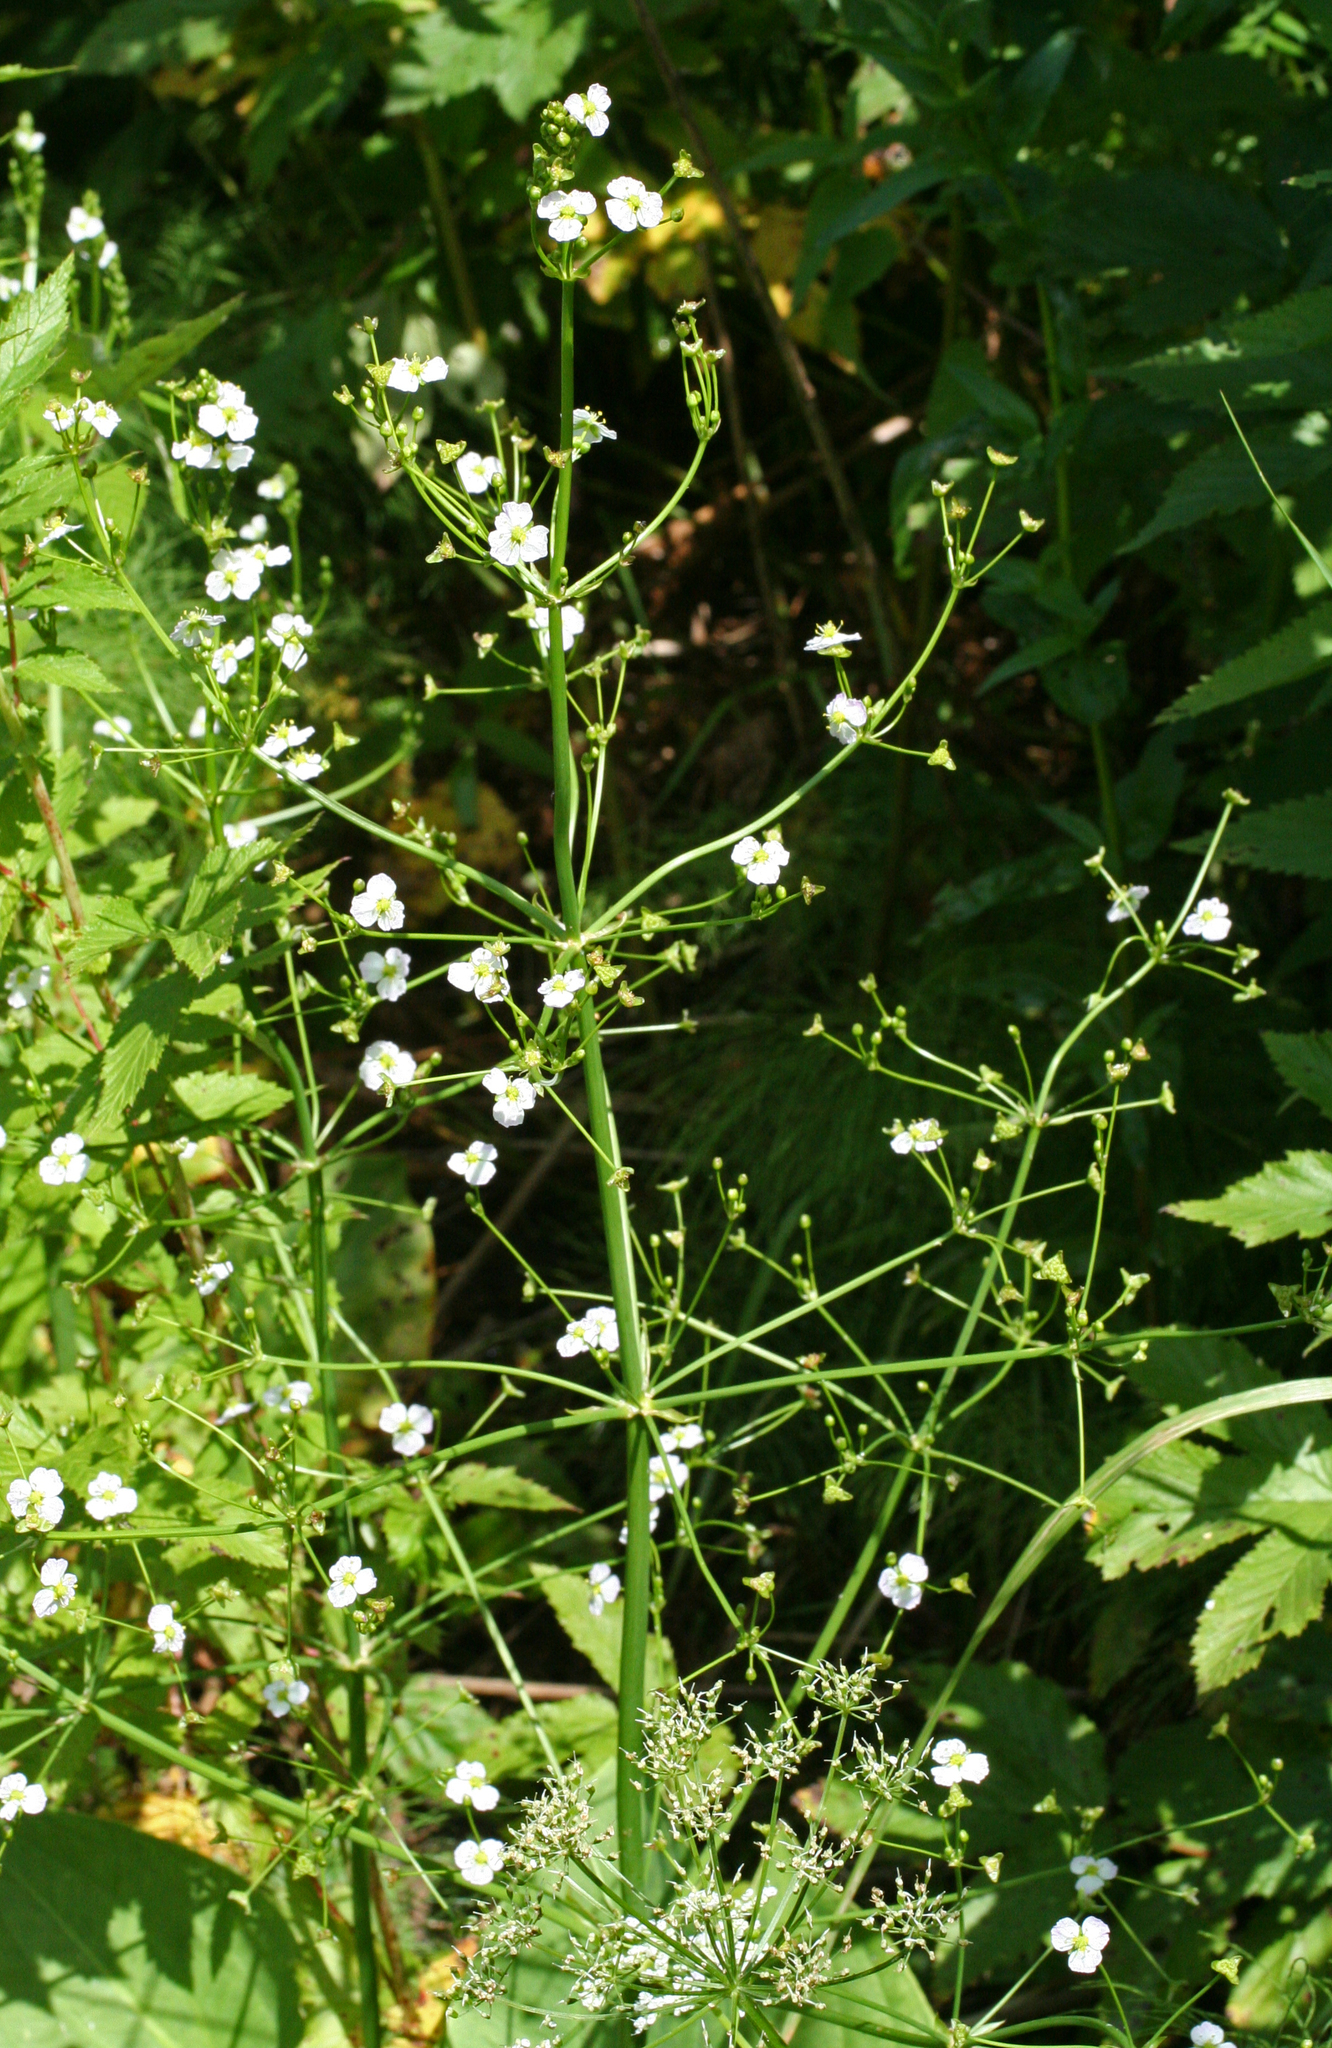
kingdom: Plantae
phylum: Tracheophyta
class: Liliopsida
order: Alismatales
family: Alismataceae
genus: Alisma
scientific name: Alisma plantago-aquatica
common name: Water-plantain
